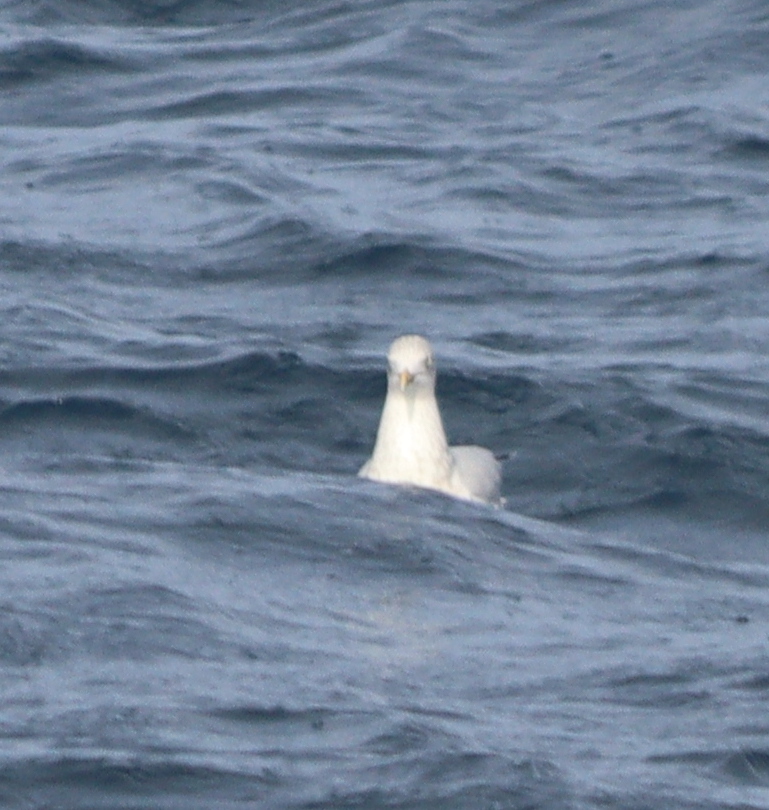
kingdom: Animalia
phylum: Chordata
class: Aves
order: Charadriiformes
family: Laridae
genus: Larus
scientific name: Larus argentatus
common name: Herring gull
